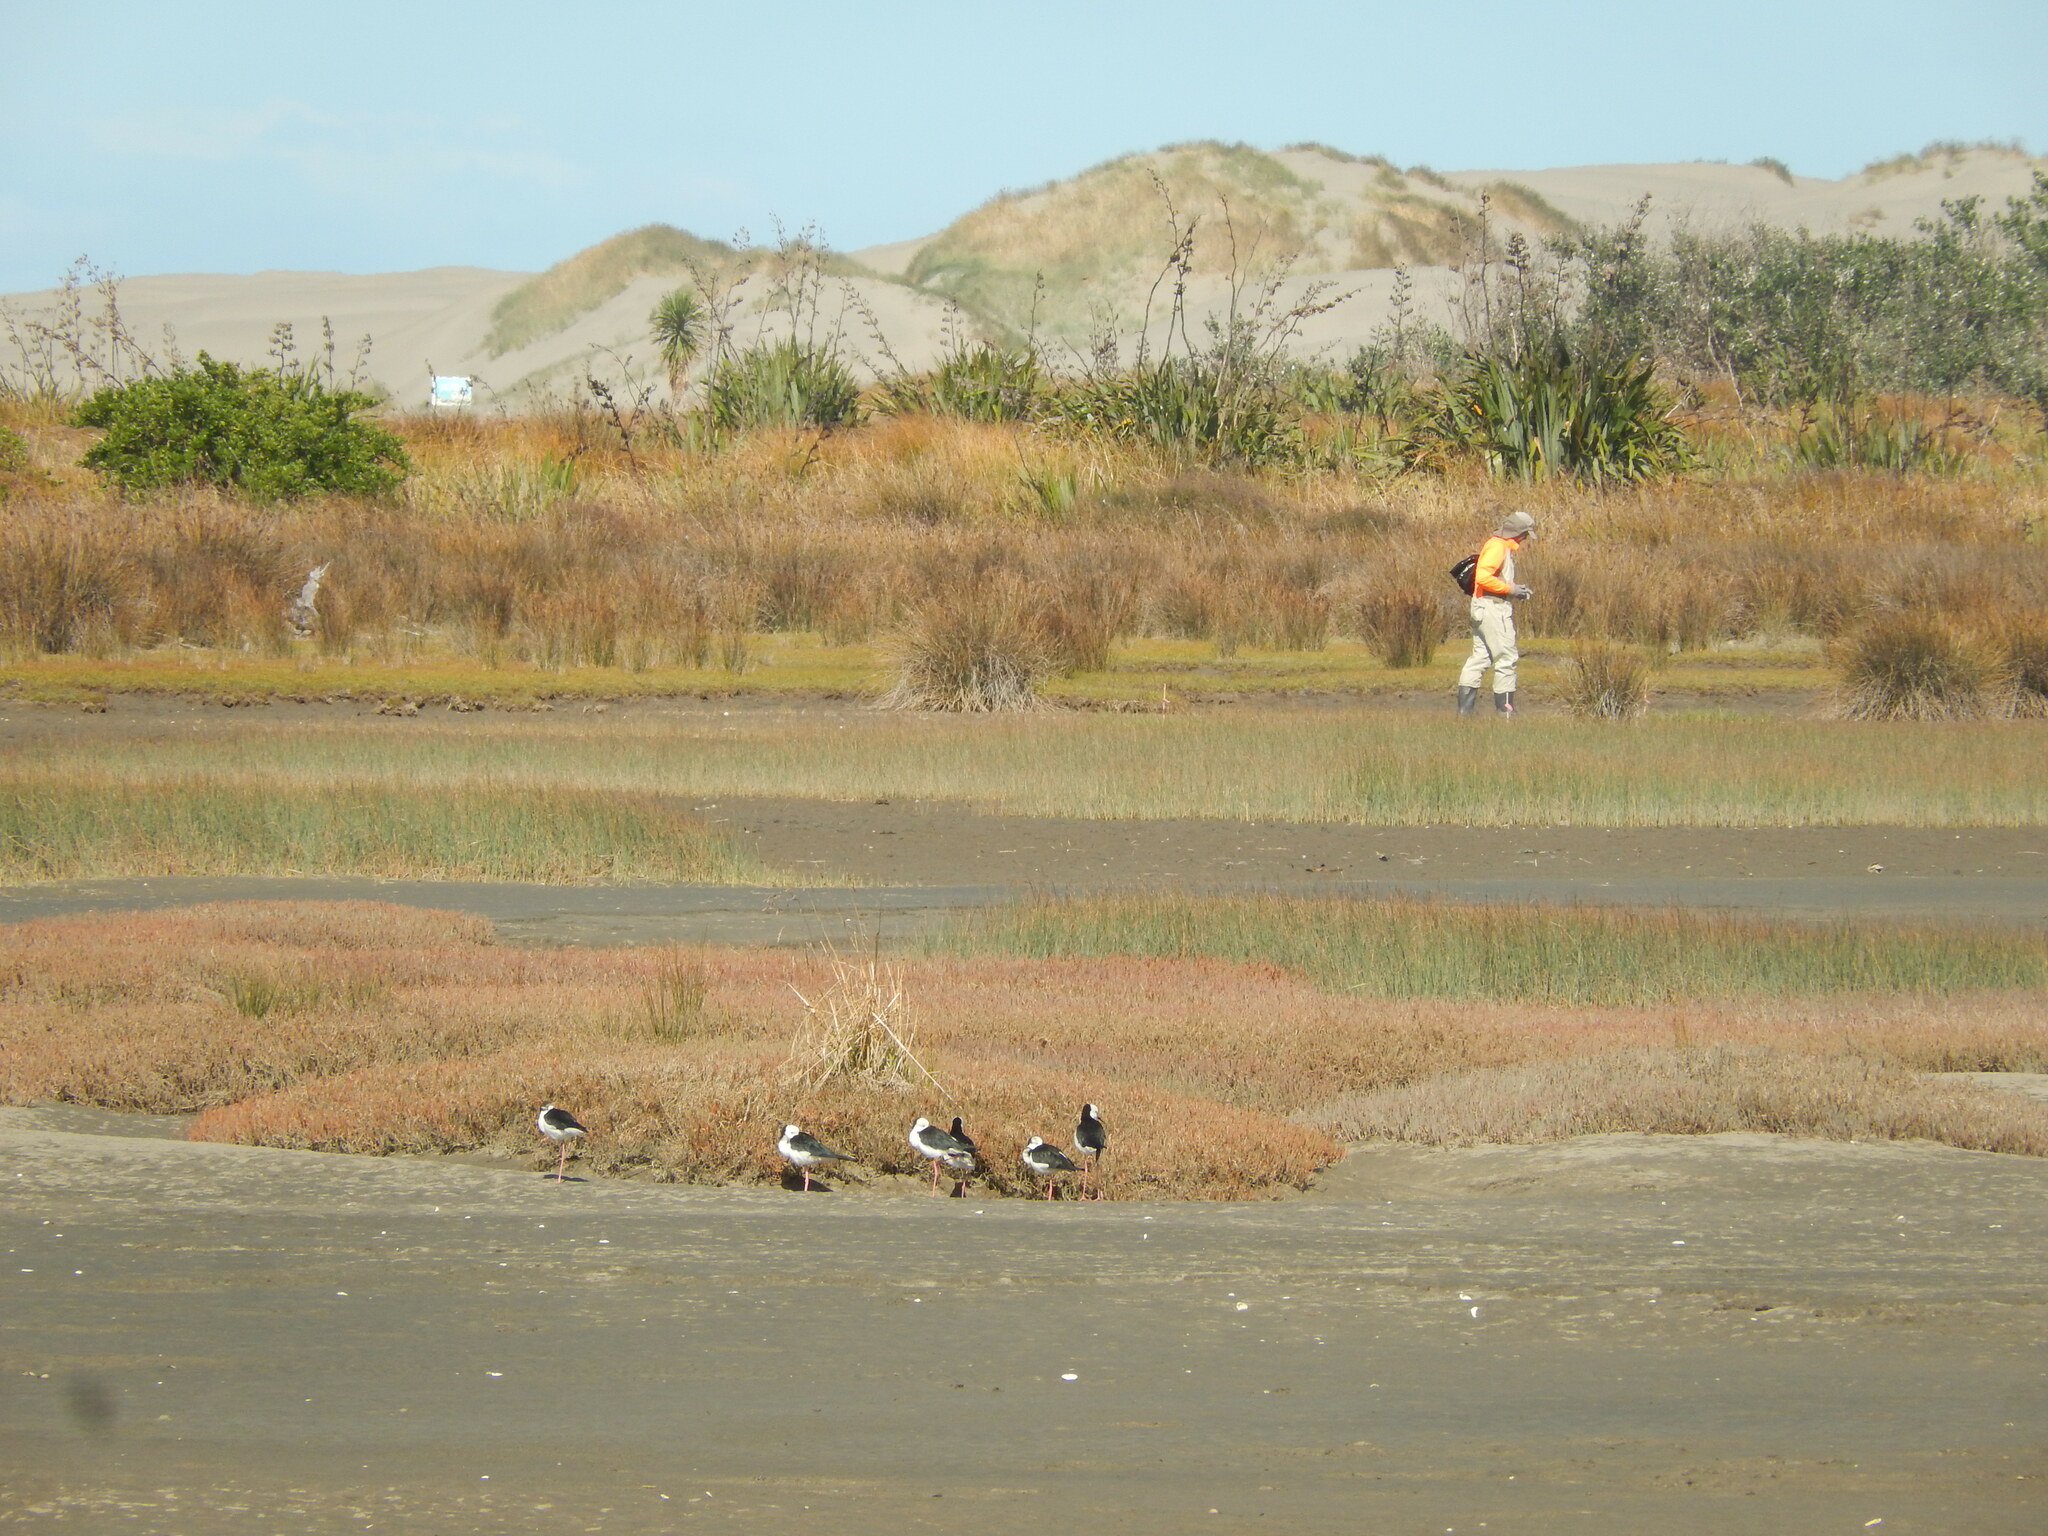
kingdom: Animalia
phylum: Chordata
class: Aves
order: Charadriiformes
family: Recurvirostridae
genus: Himantopus
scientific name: Himantopus leucocephalus
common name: White-headed stilt
